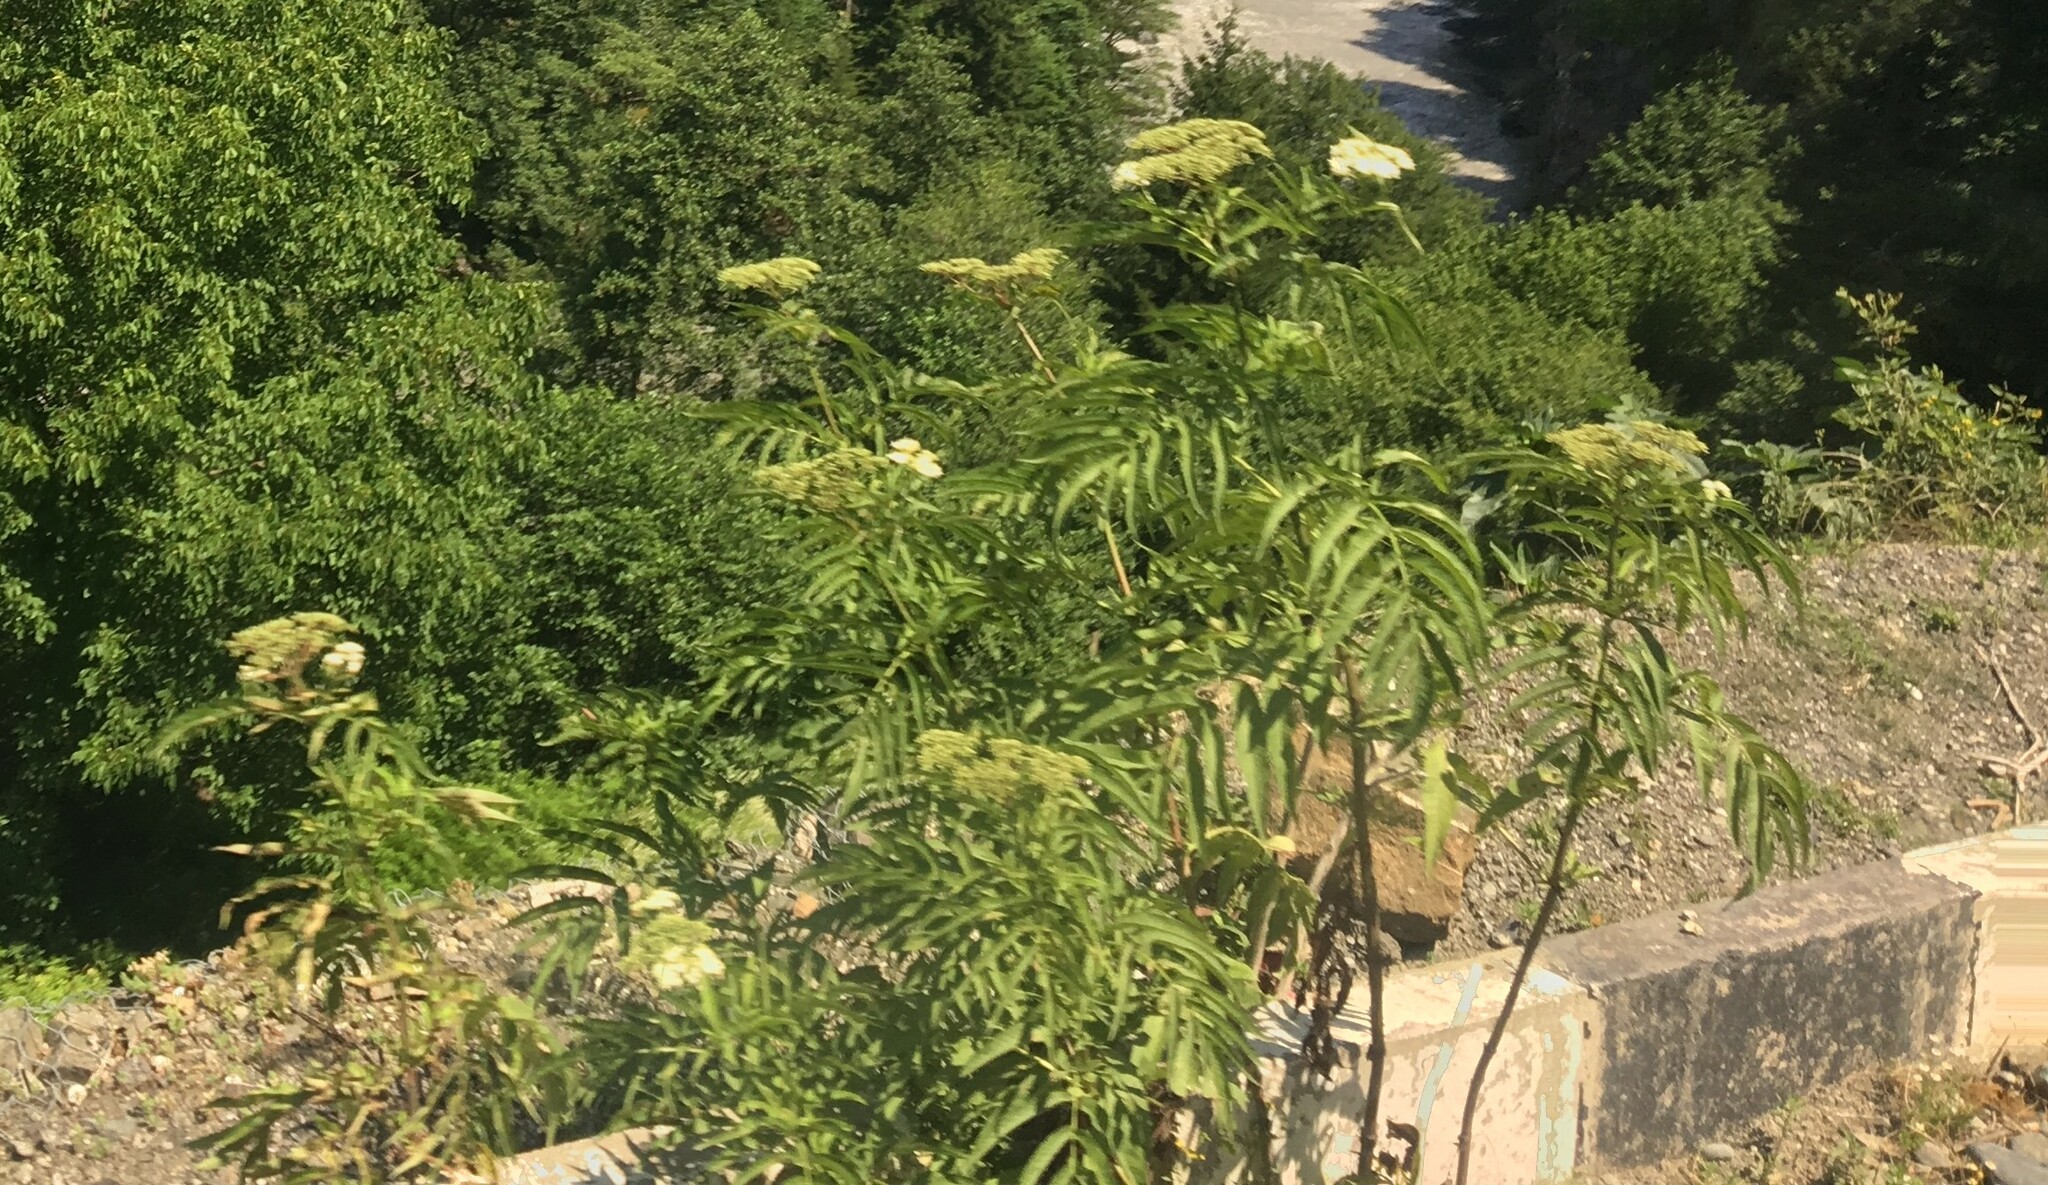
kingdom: Plantae
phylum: Tracheophyta
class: Magnoliopsida
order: Dipsacales
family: Viburnaceae
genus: Sambucus
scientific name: Sambucus ebulus
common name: Dwarf elder
